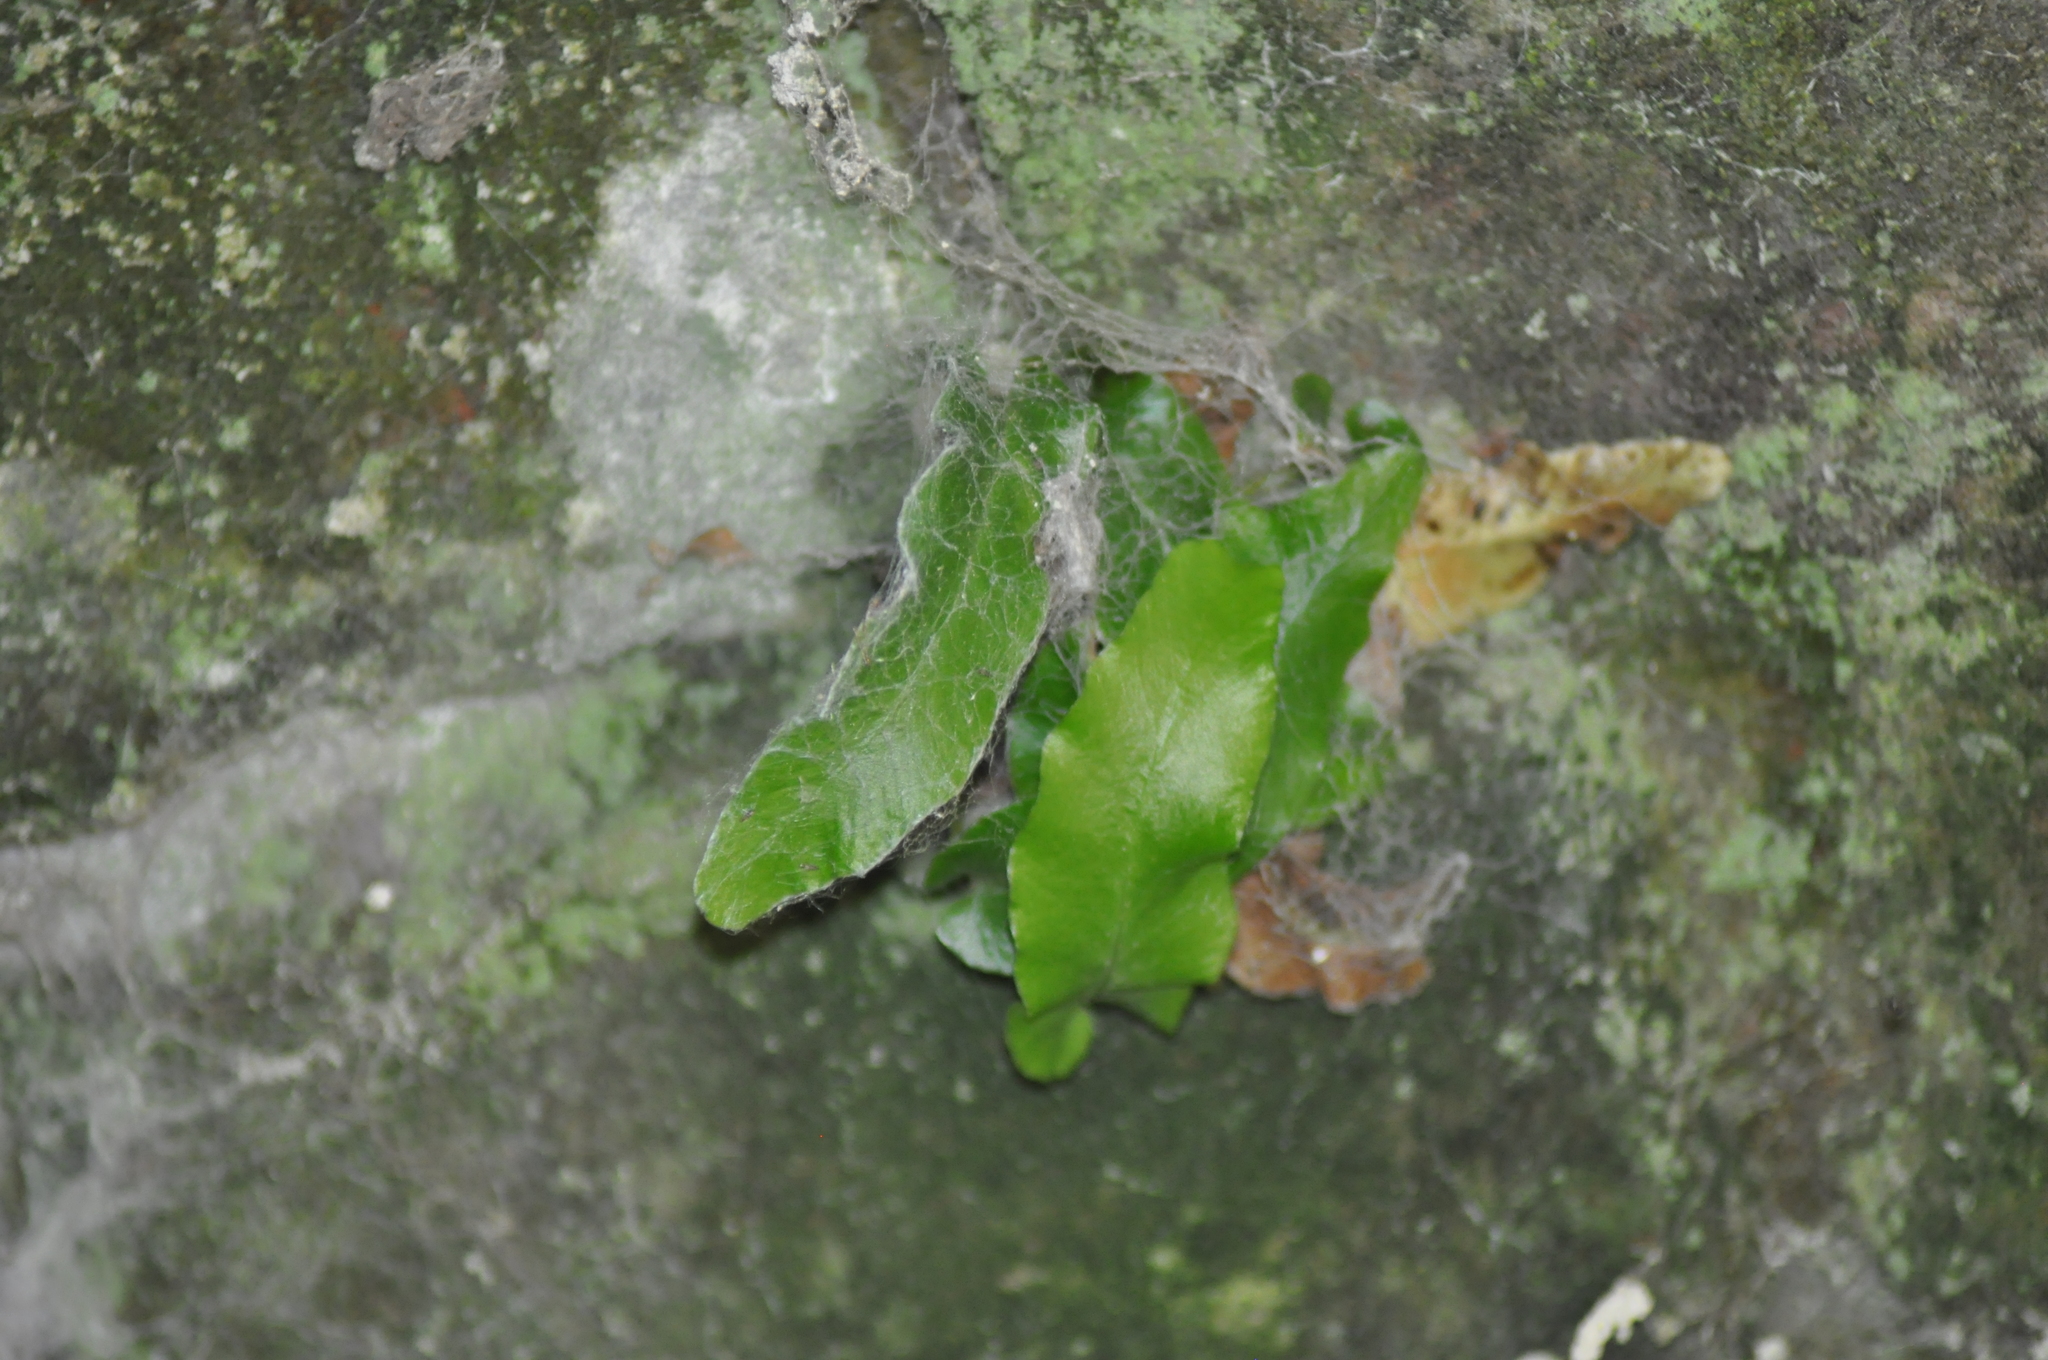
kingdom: Plantae
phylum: Tracheophyta
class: Polypodiopsida
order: Polypodiales
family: Aspleniaceae
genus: Asplenium
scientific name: Asplenium scolopendrium
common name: Hart's-tongue fern
